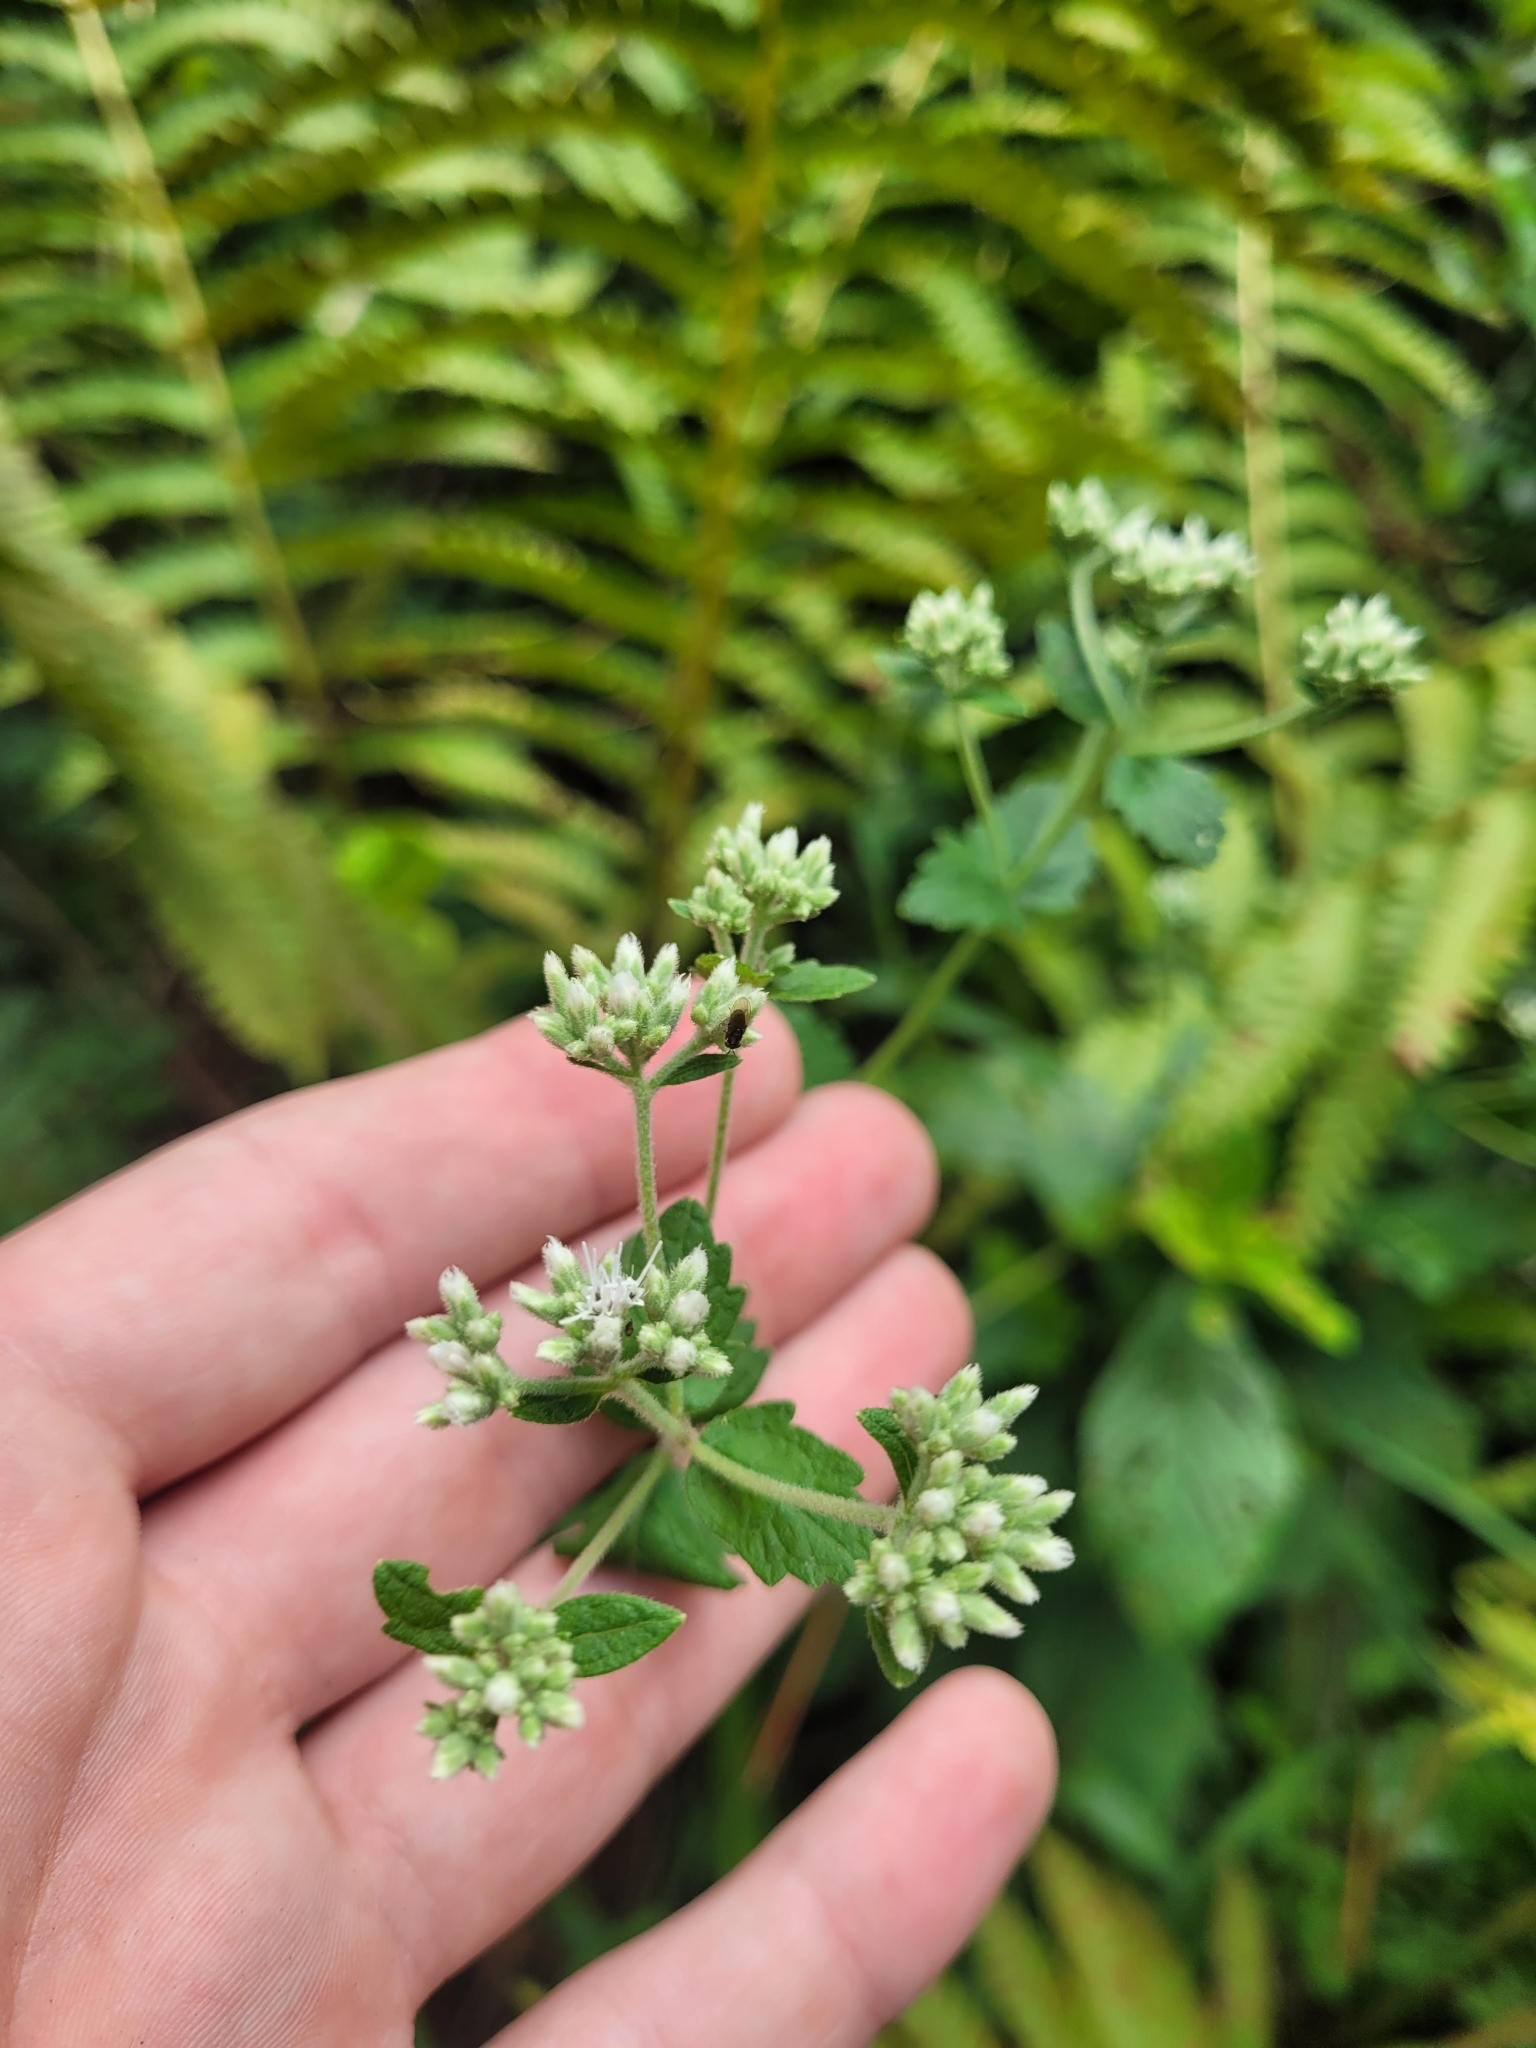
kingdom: Plantae
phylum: Tracheophyta
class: Magnoliopsida
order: Asterales
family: Asteraceae
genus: Eupatorium
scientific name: Eupatorium rotundifolium
